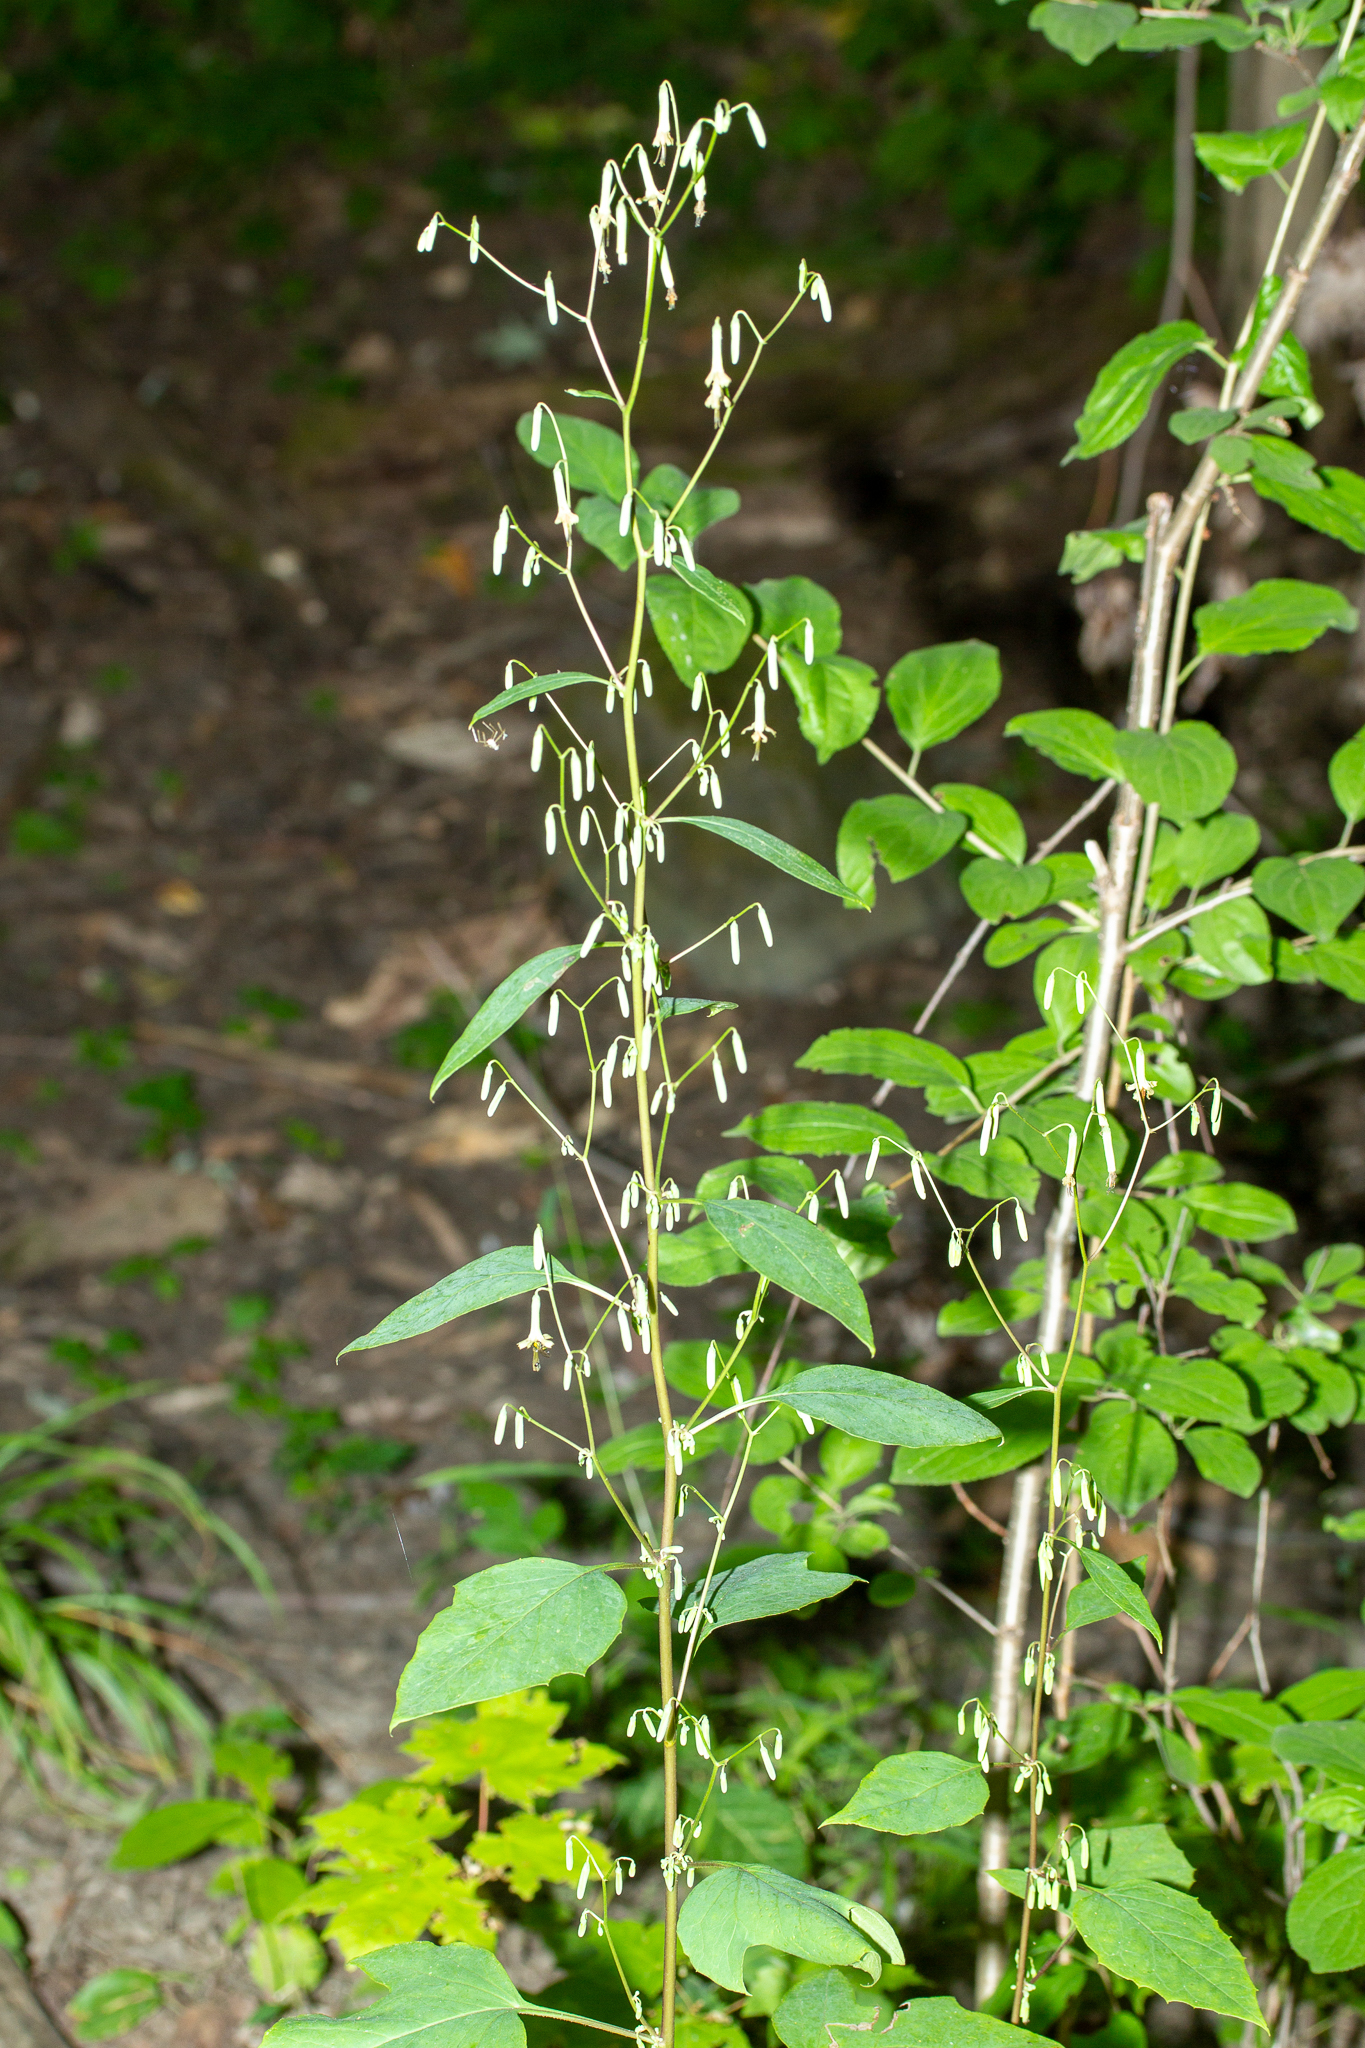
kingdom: Plantae
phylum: Tracheophyta
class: Magnoliopsida
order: Asterales
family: Asteraceae
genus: Nabalus
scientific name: Nabalus altissima
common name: Tall rattlesnakeroot
